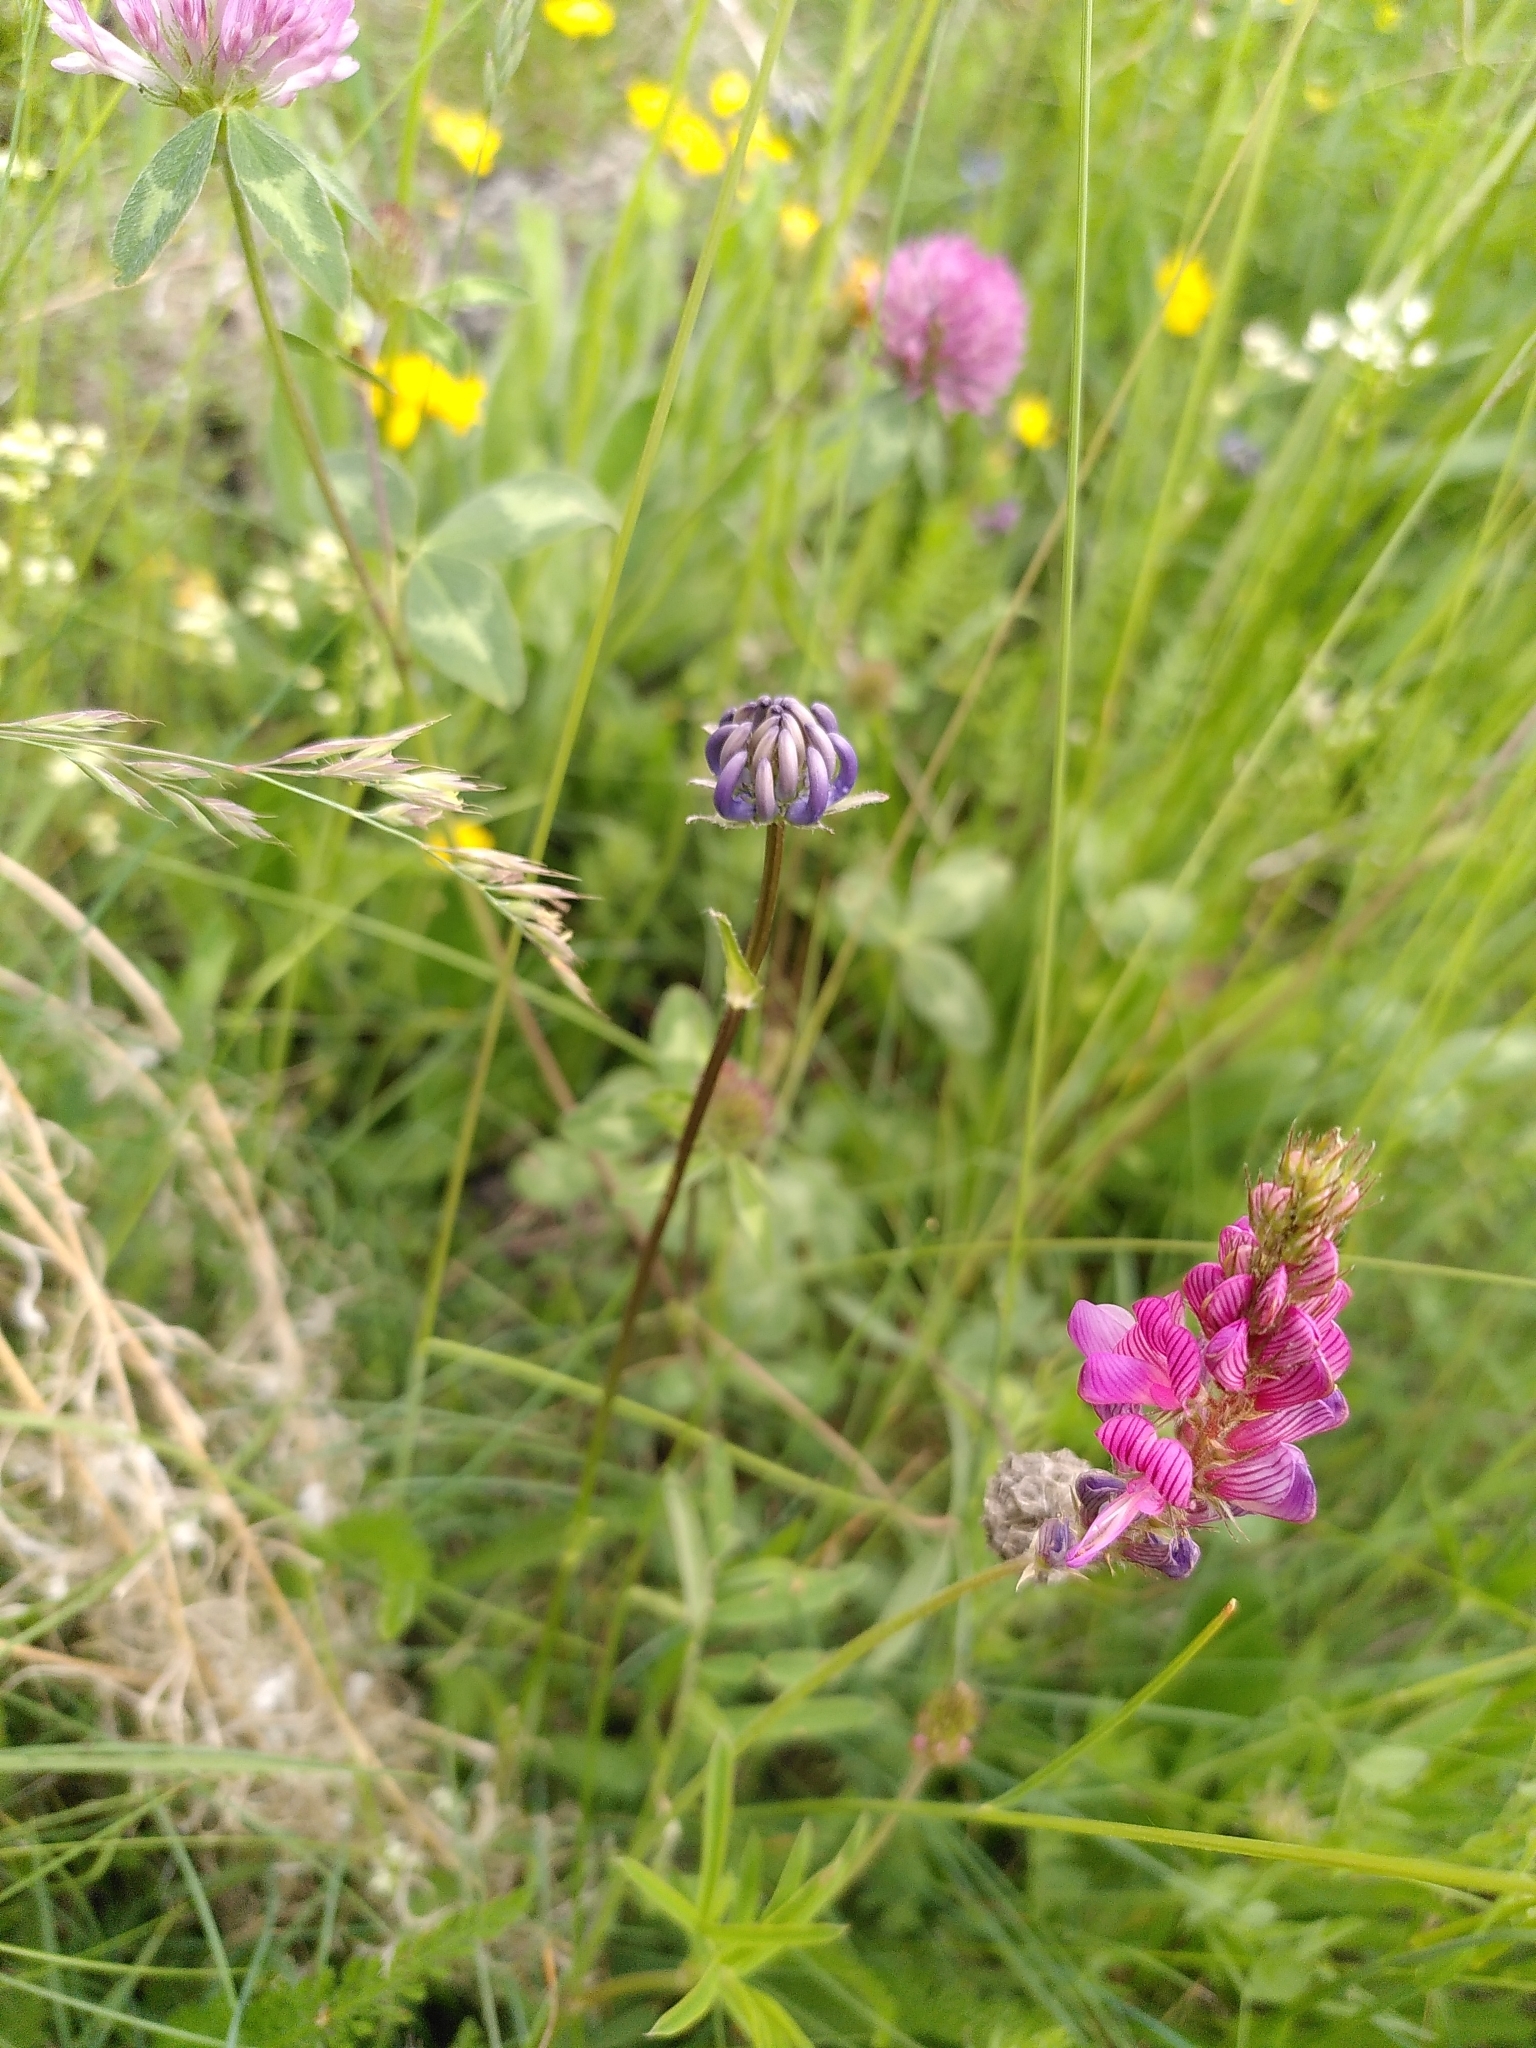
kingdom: Plantae
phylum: Tracheophyta
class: Magnoliopsida
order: Asterales
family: Campanulaceae
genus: Phyteuma
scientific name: Phyteuma orbiculare
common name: Round-headed rampion
